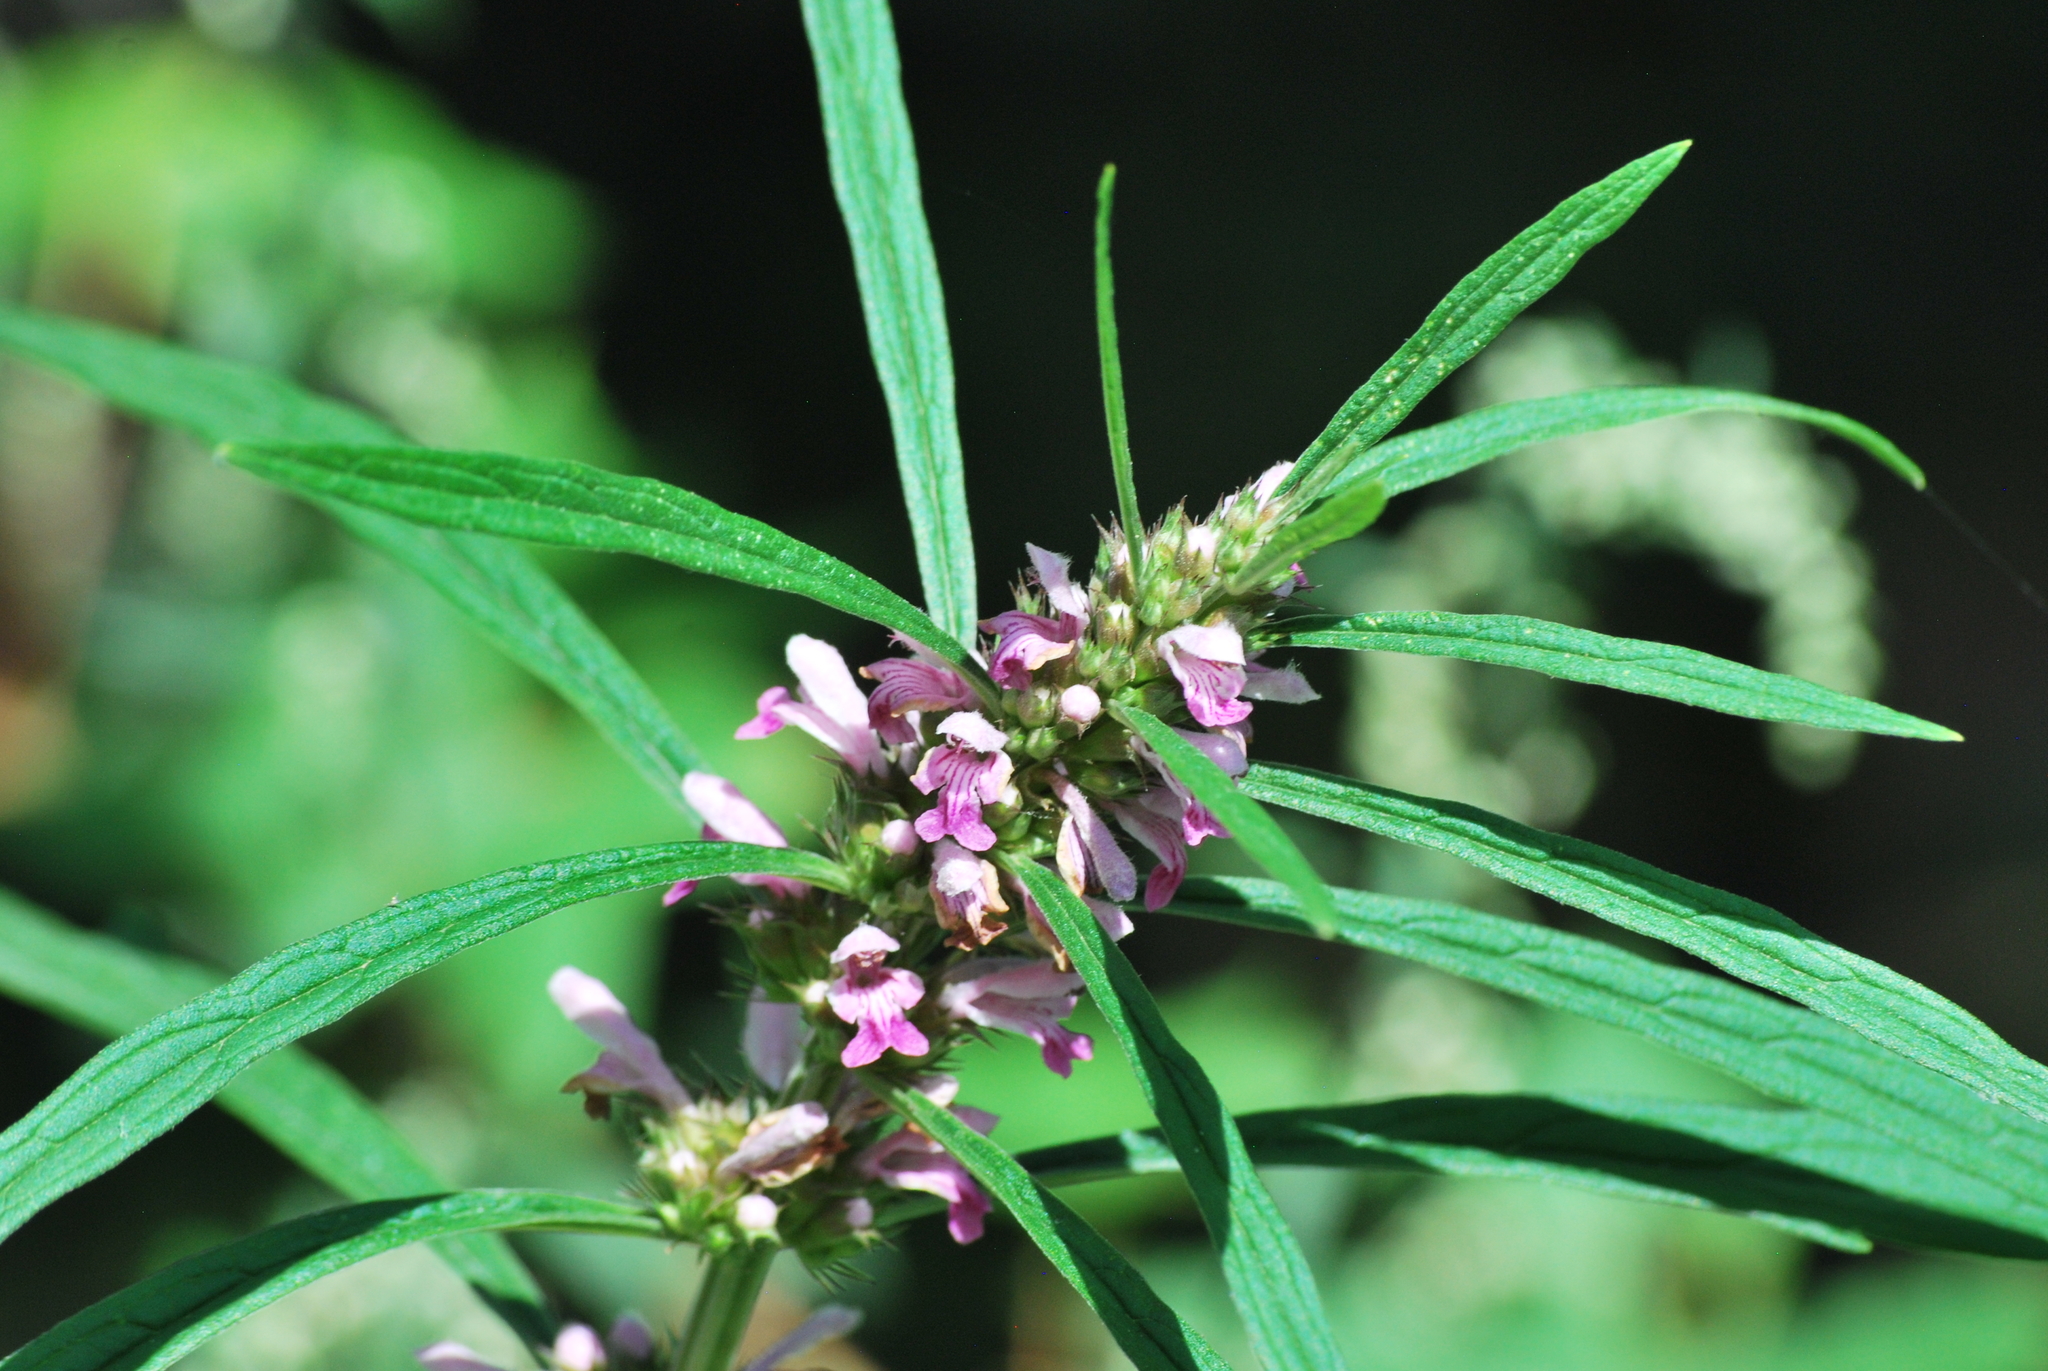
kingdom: Plantae
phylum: Tracheophyta
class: Magnoliopsida
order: Lamiales
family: Lamiaceae
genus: Leonurus
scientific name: Leonurus japonicus
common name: Honeyweed
